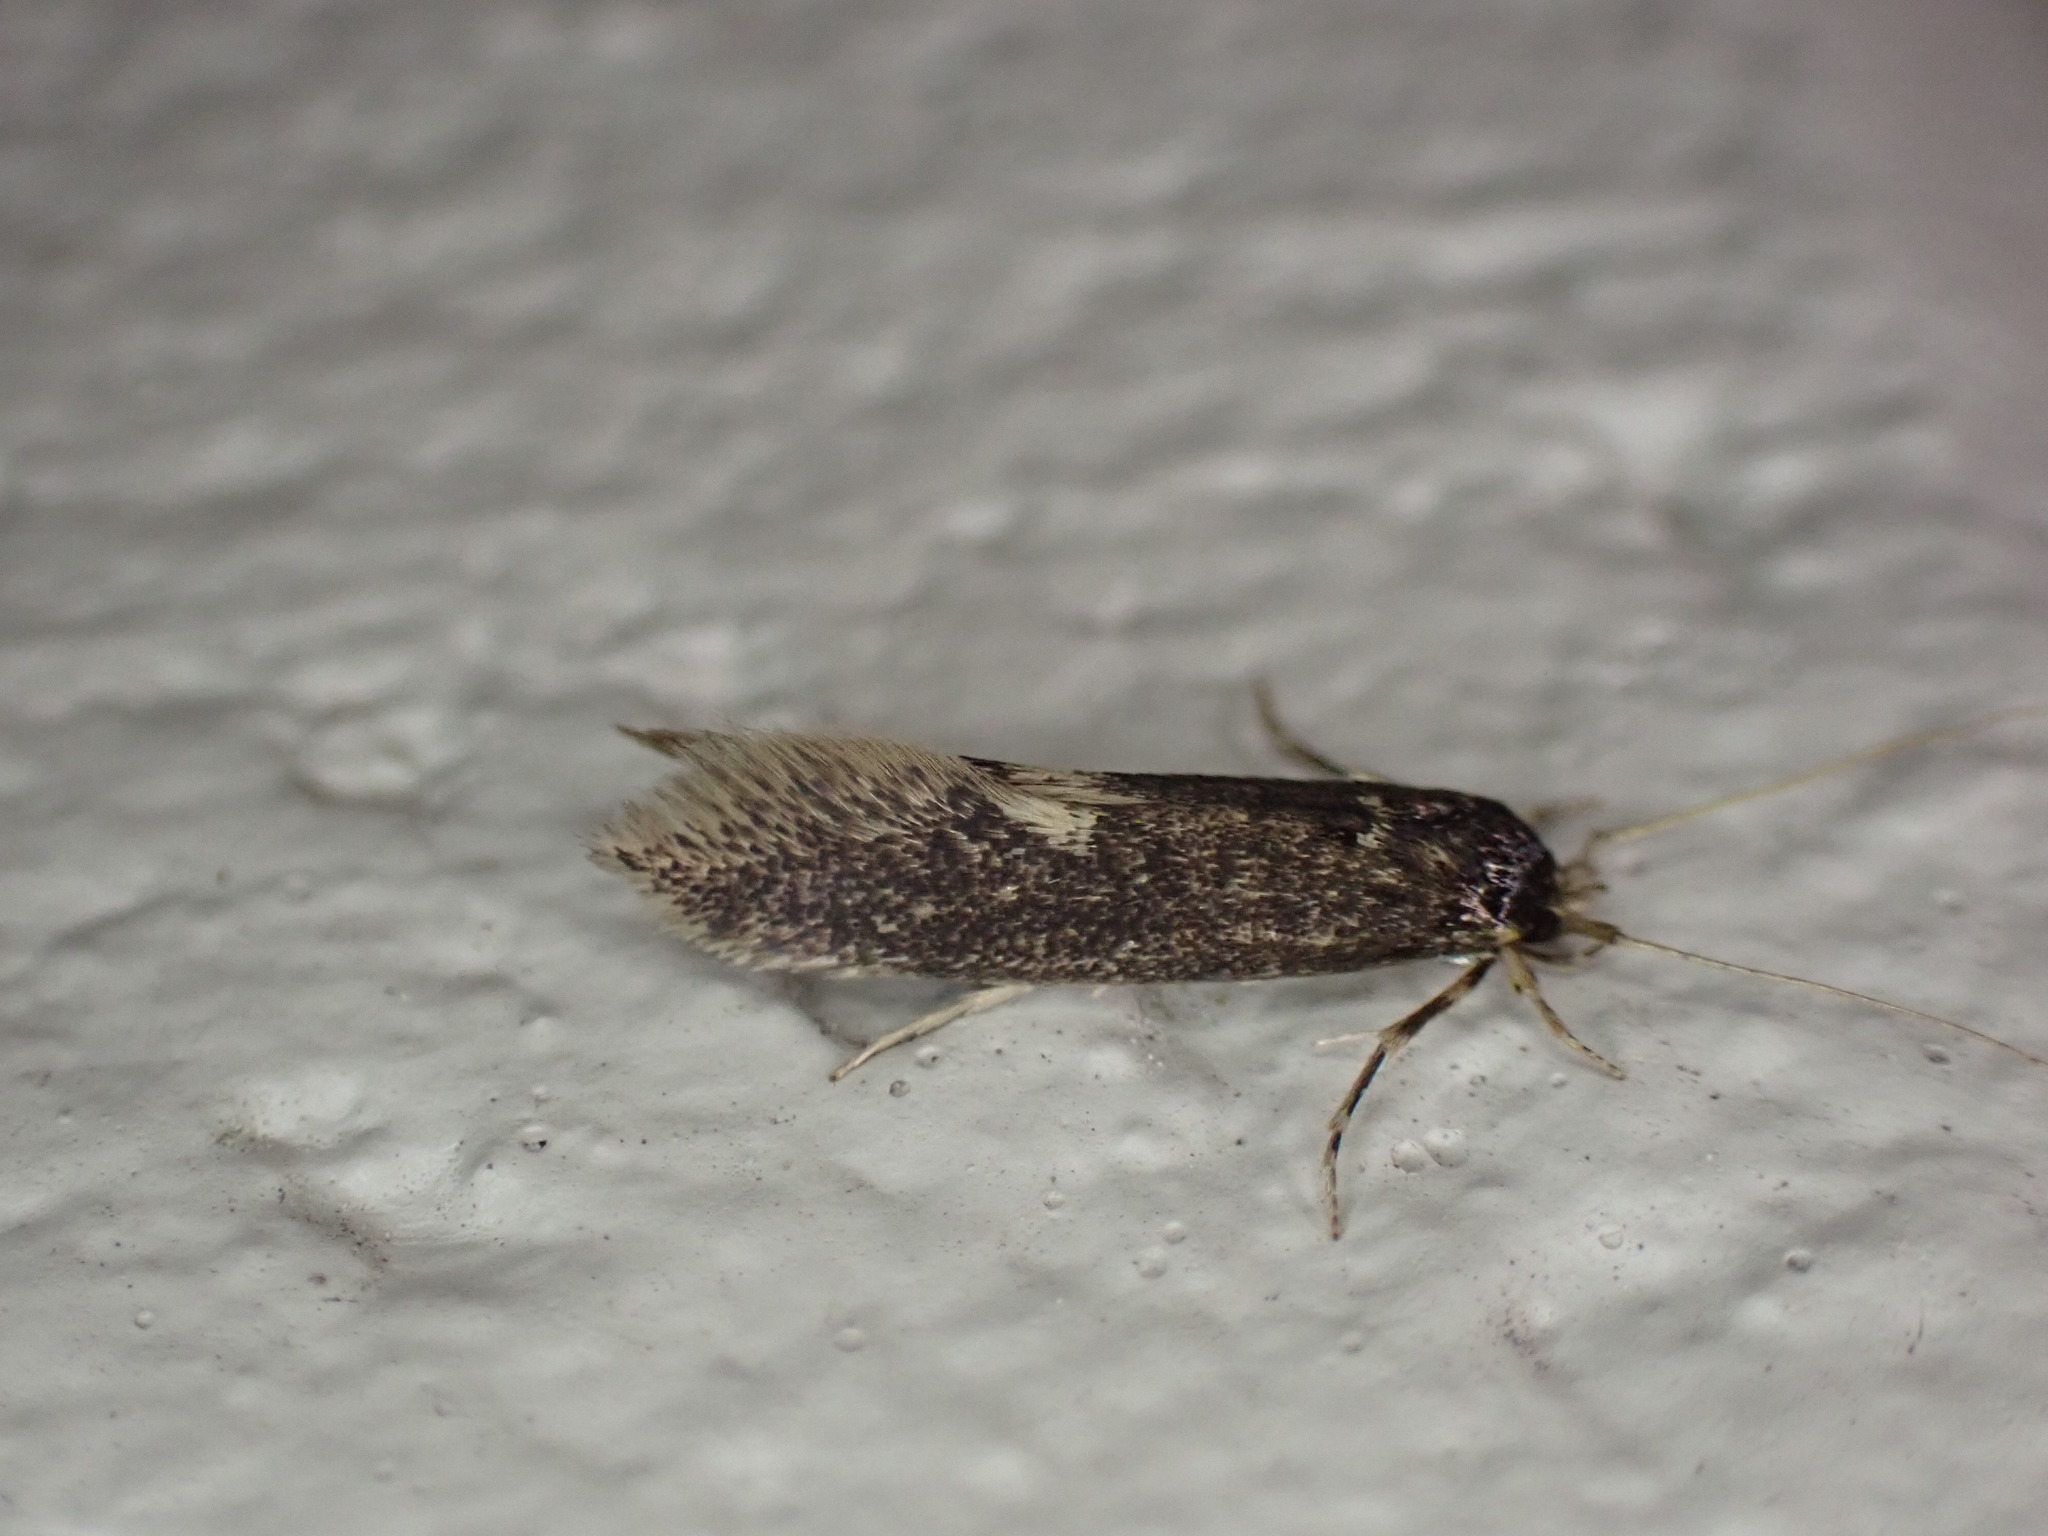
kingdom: Animalia
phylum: Arthropoda
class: Insecta
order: Lepidoptera
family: Tineidae
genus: Opogona
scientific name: Opogona omoscopa
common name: Moth
